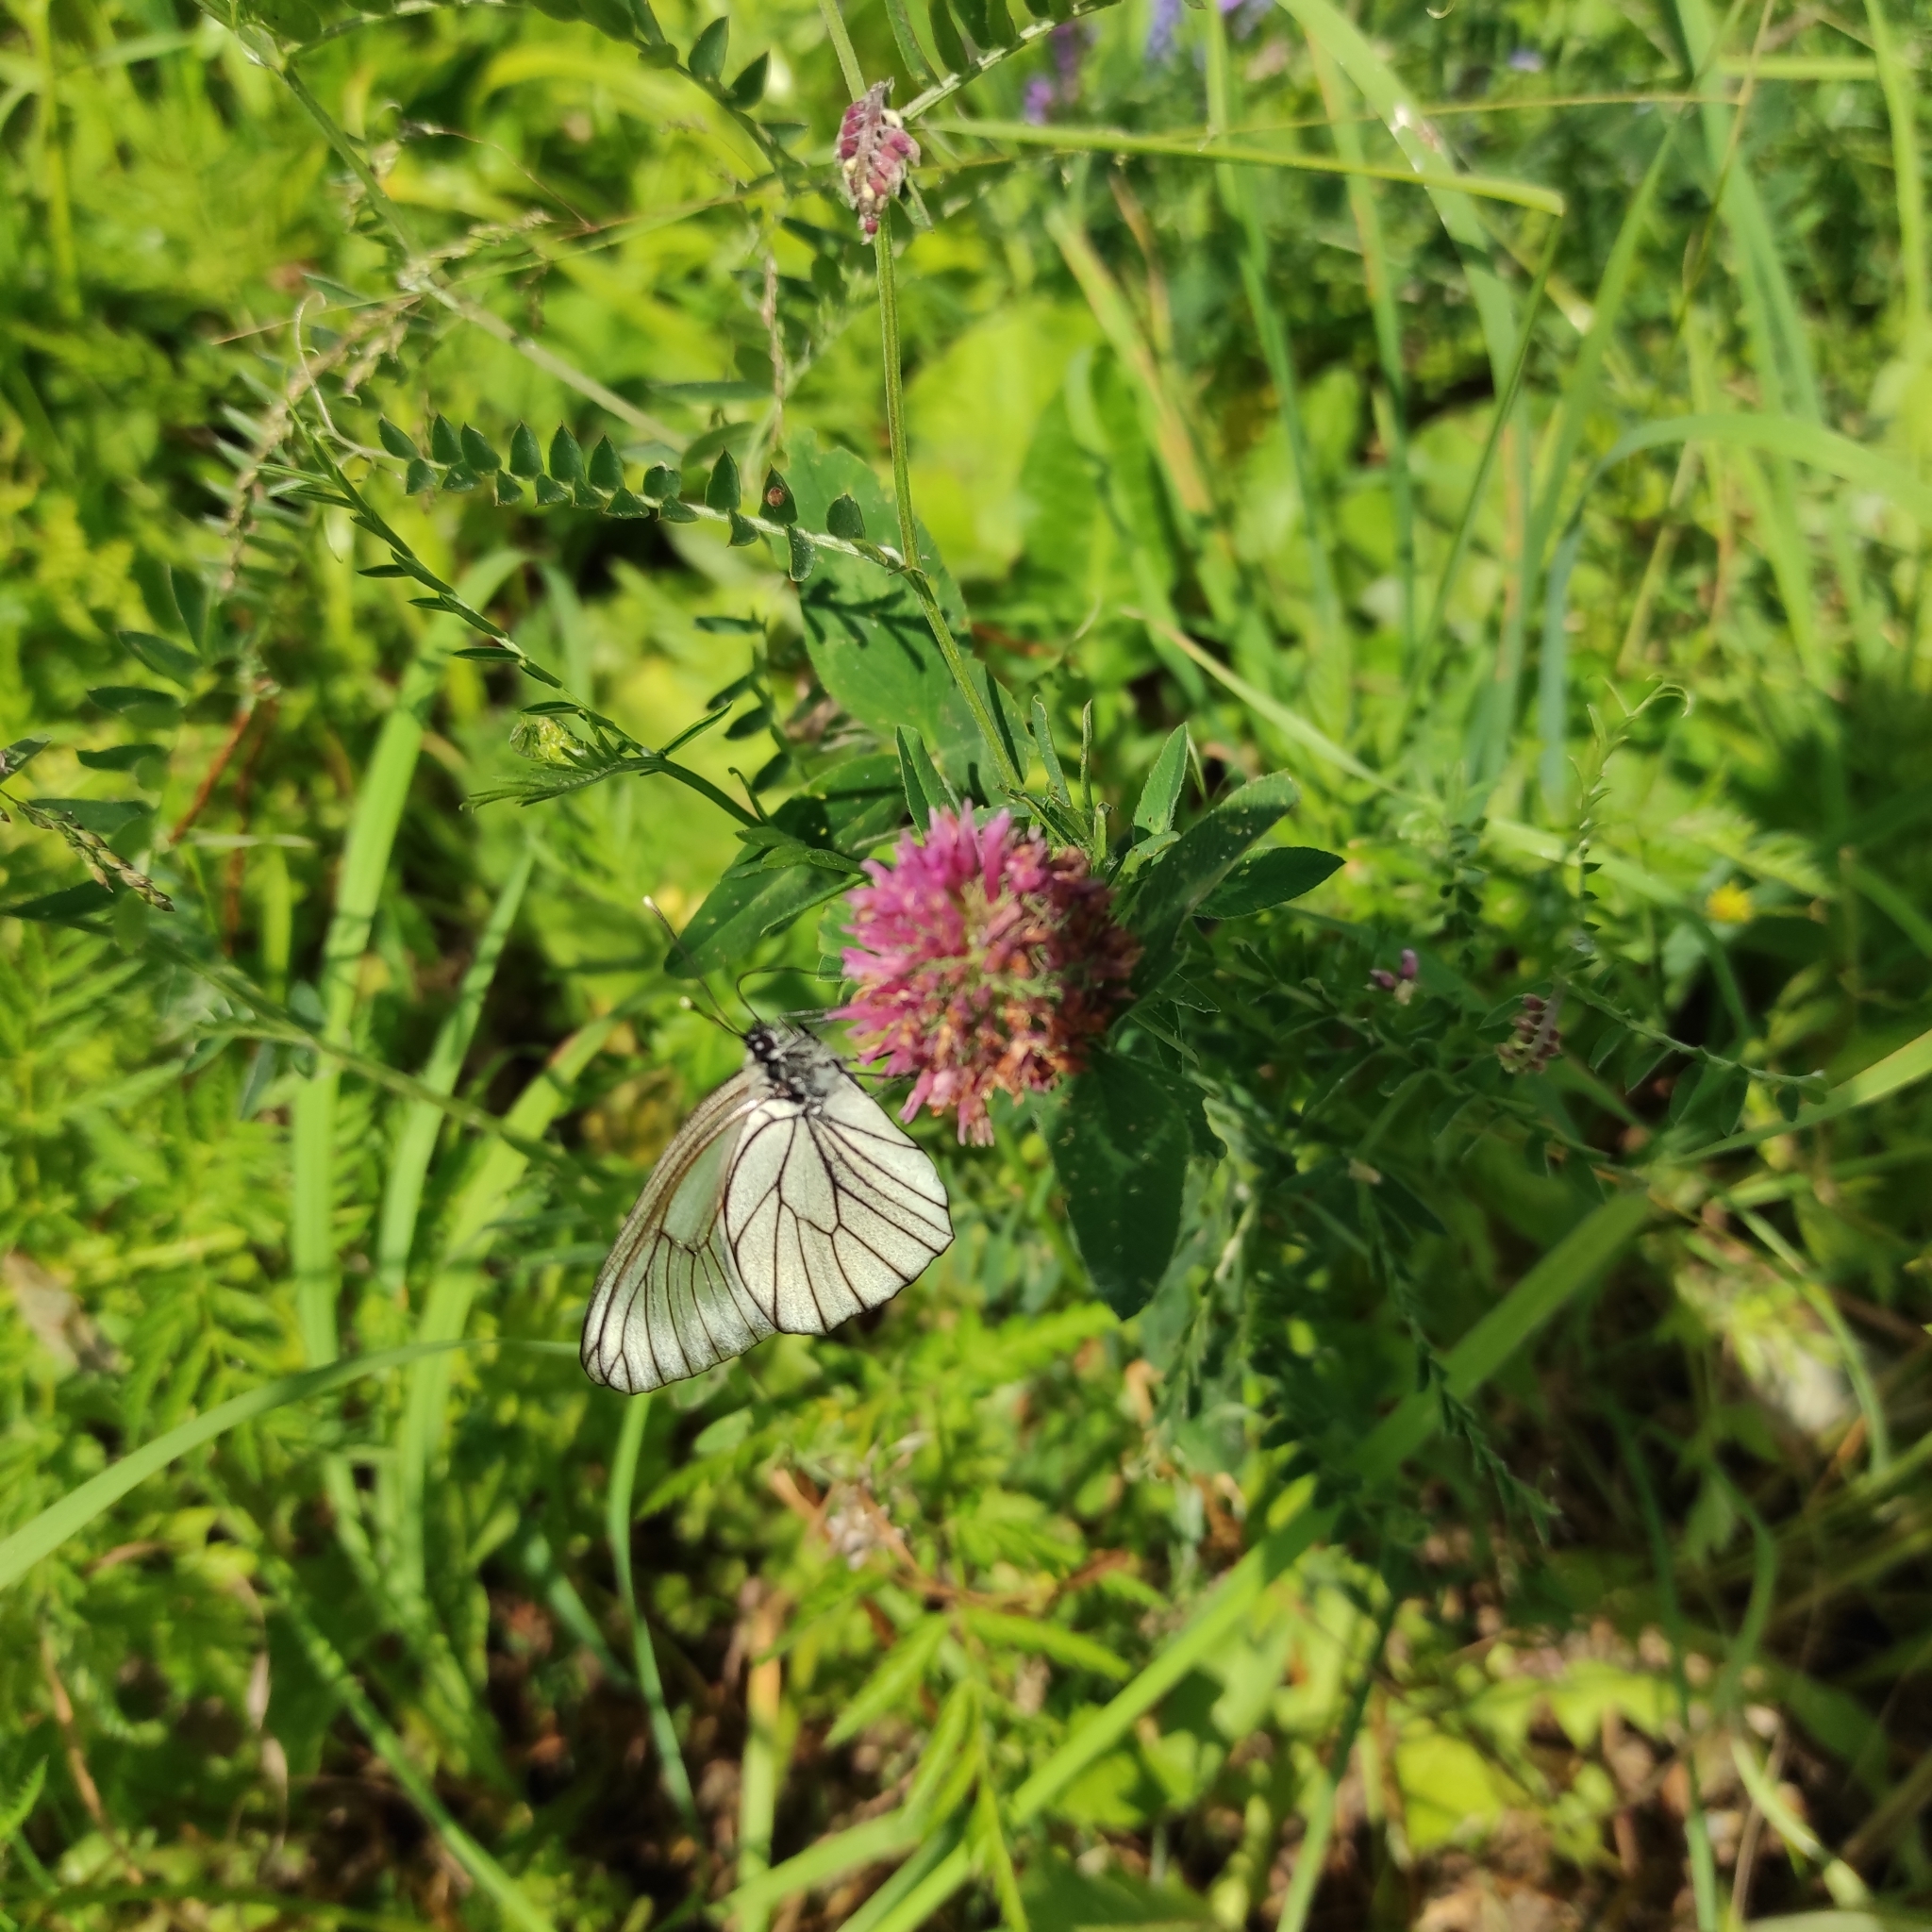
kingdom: Animalia
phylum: Arthropoda
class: Insecta
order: Lepidoptera
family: Pieridae
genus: Aporia
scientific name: Aporia crataegi
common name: Black-veined white
